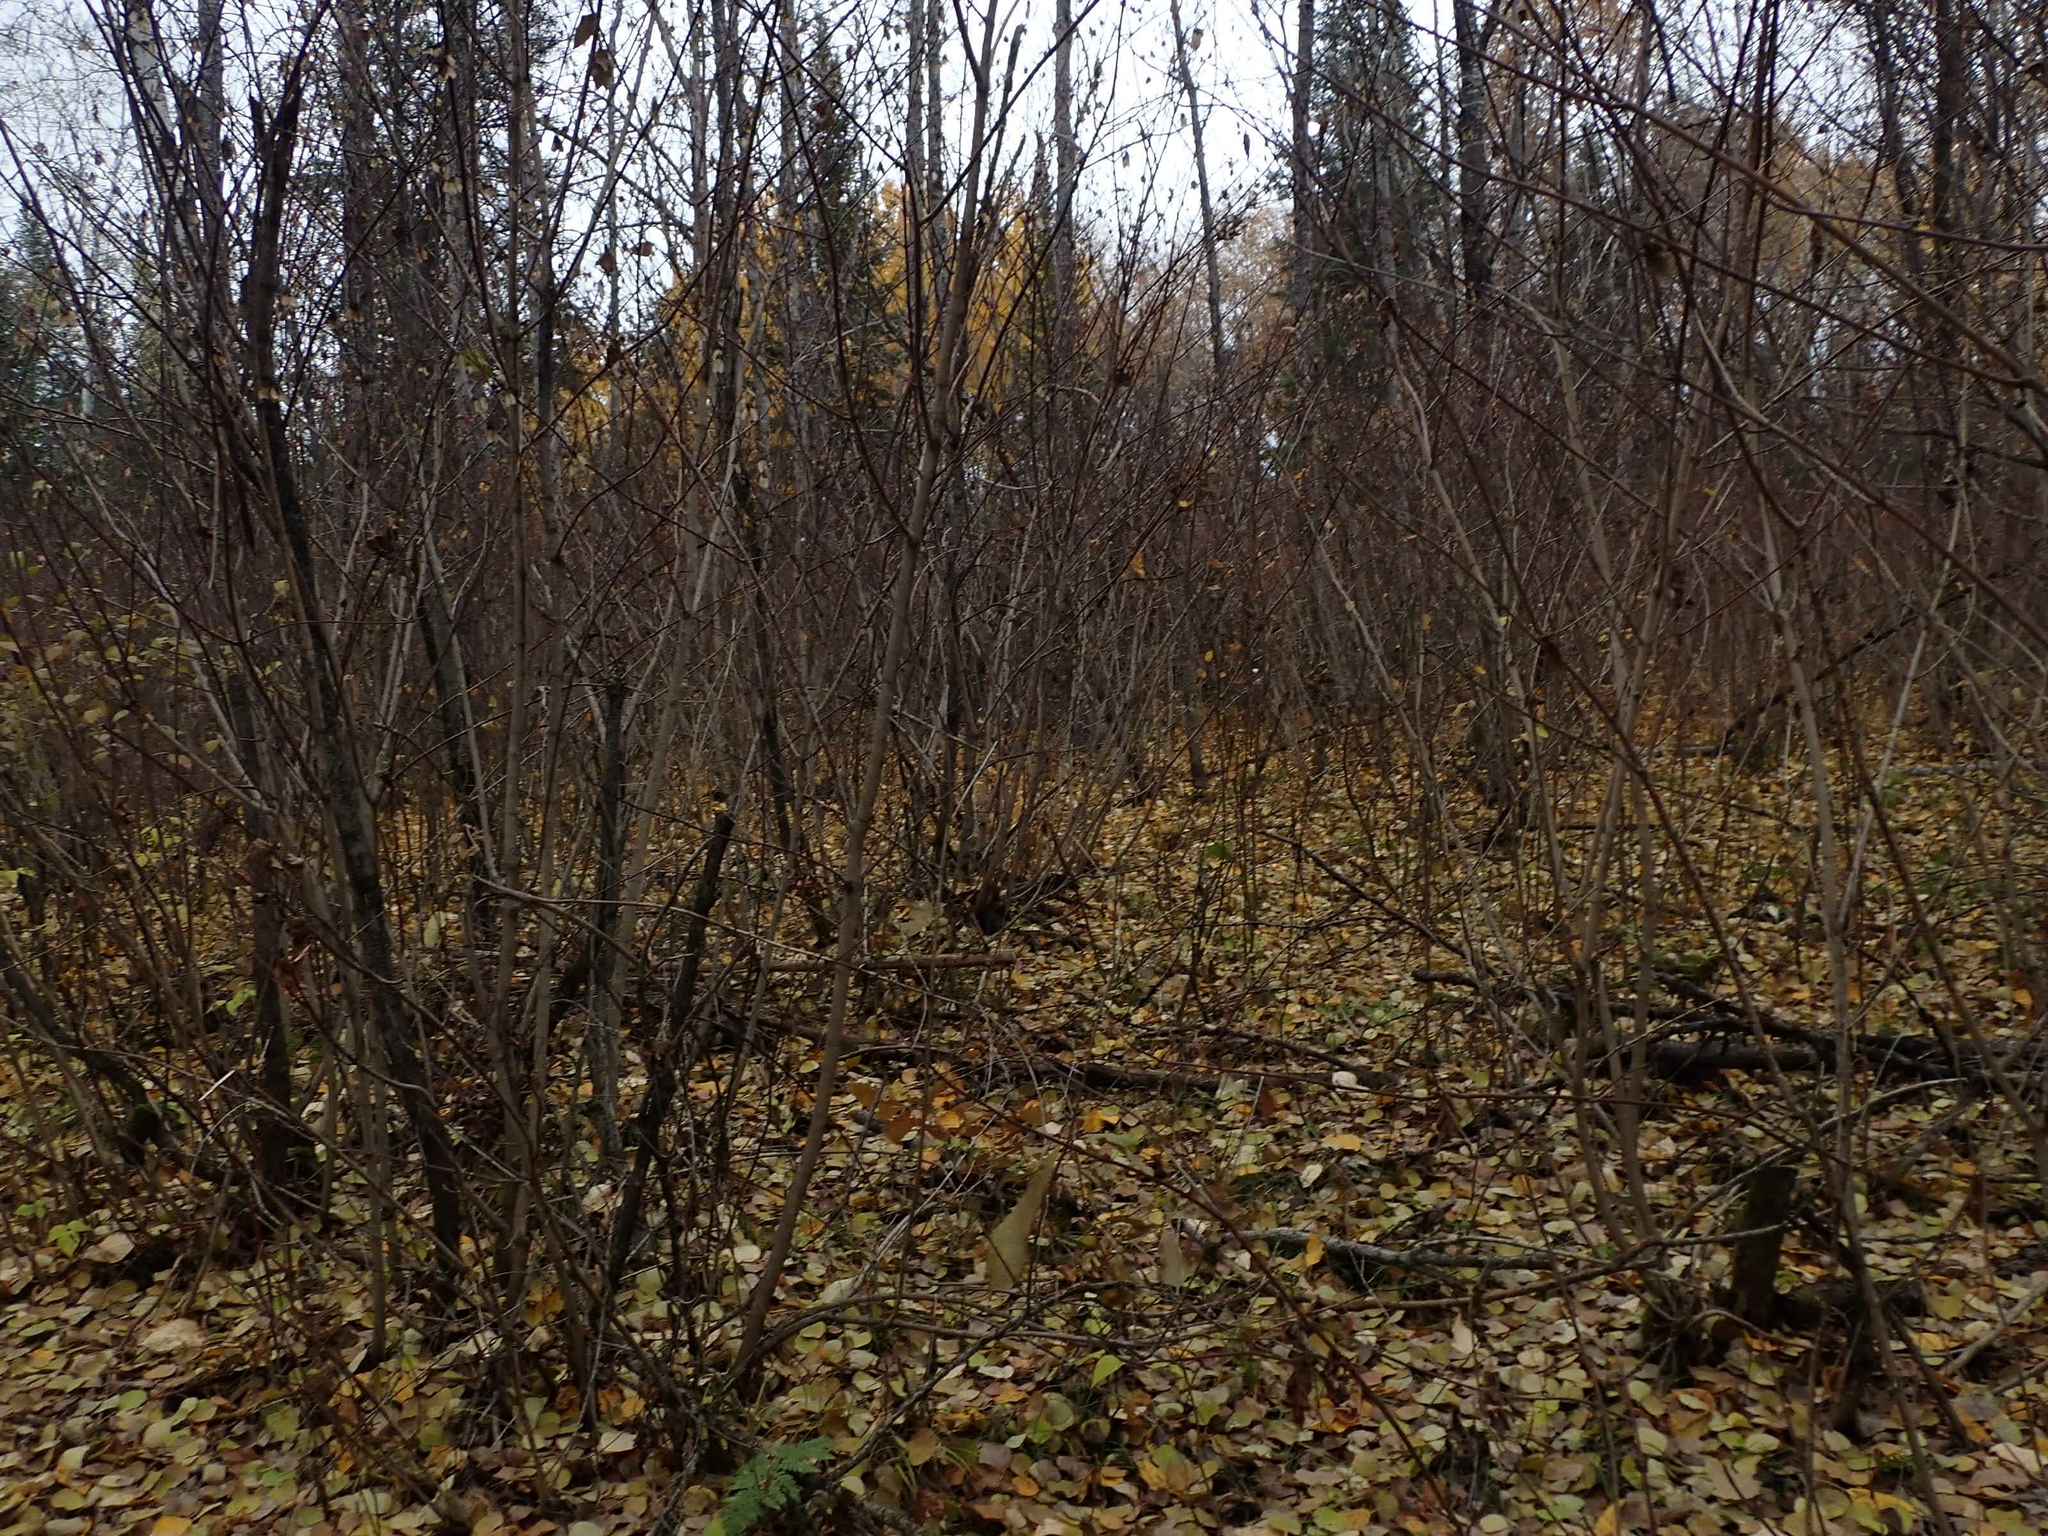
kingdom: Plantae
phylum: Tracheophyta
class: Magnoliopsida
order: Sapindales
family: Sapindaceae
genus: Acer
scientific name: Acer spicatum
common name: Mountain maple
